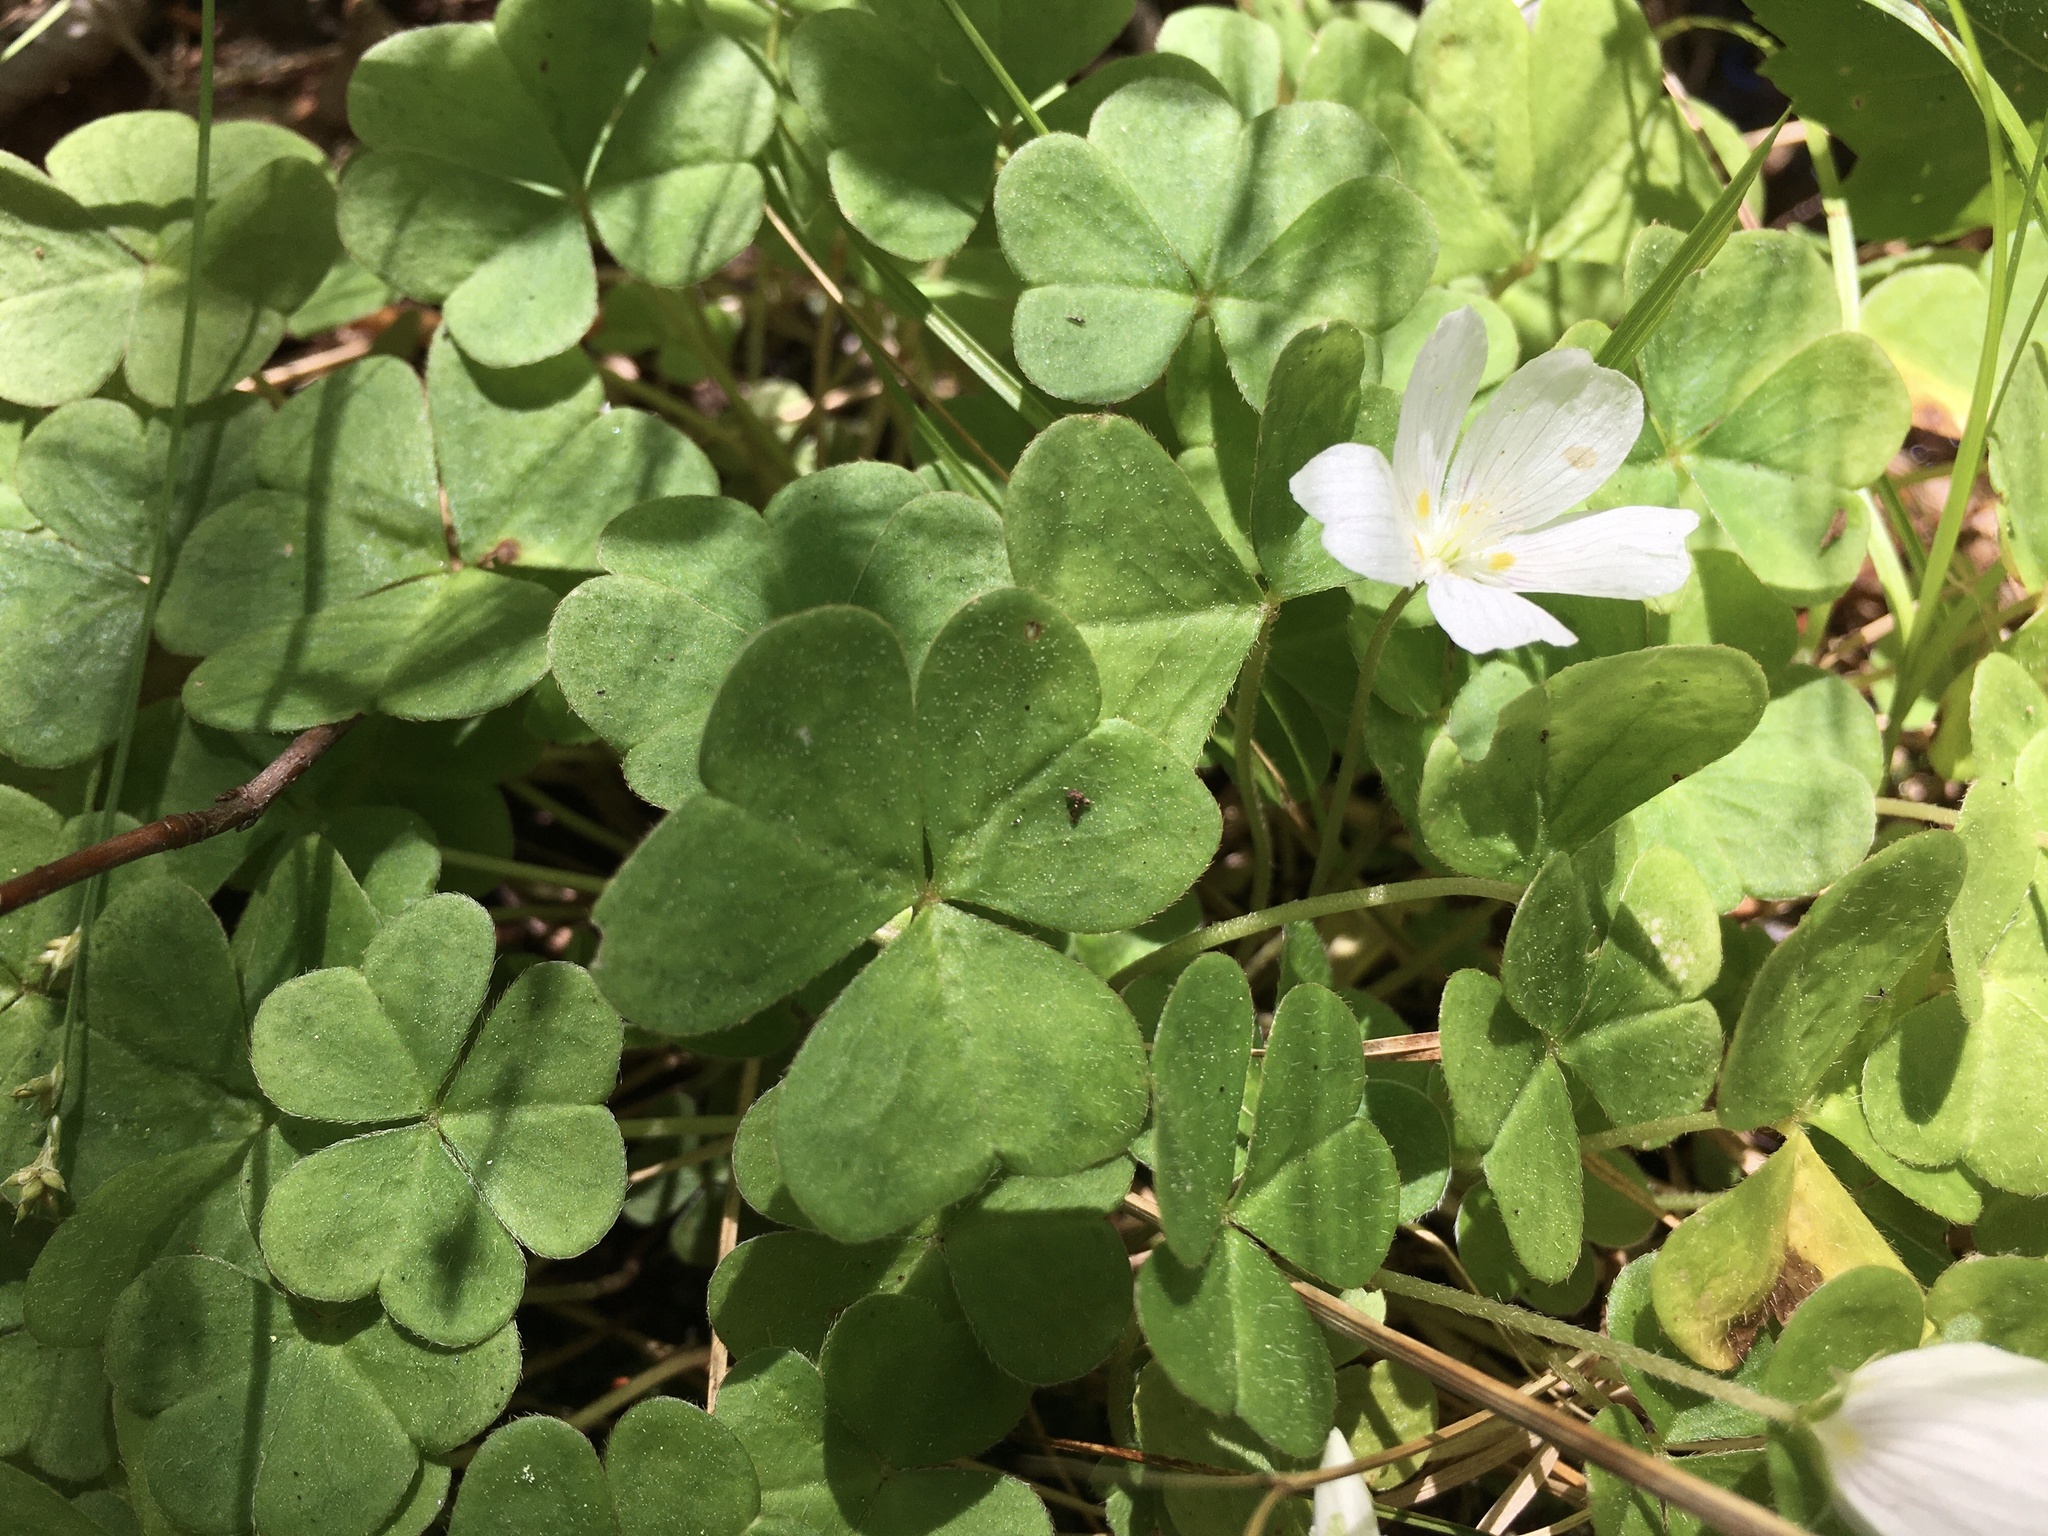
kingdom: Plantae
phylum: Tracheophyta
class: Magnoliopsida
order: Oxalidales
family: Oxalidaceae
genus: Oxalis
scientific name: Oxalis montana
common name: American wood-sorrel
